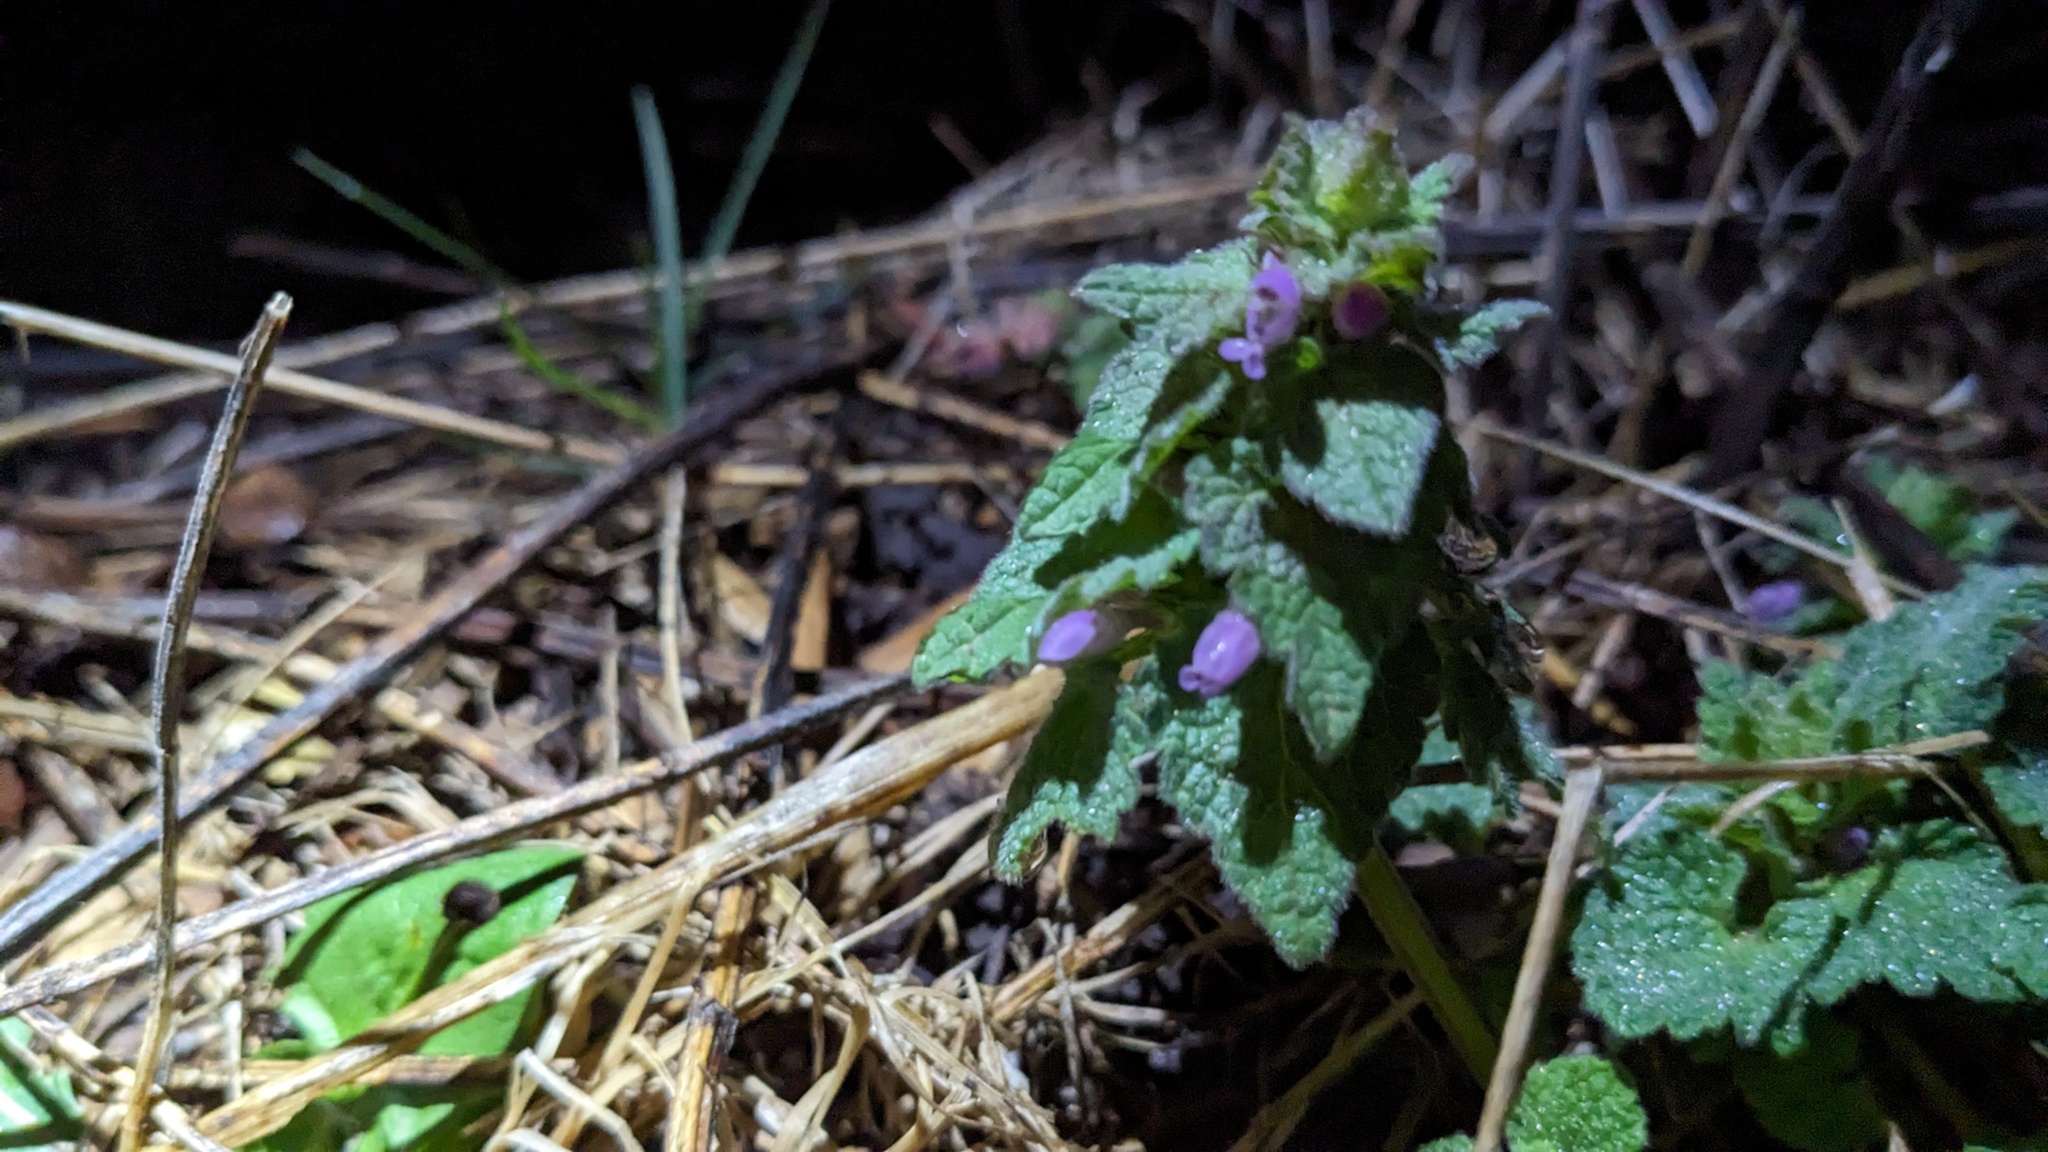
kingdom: Plantae
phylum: Tracheophyta
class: Magnoliopsida
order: Lamiales
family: Lamiaceae
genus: Lamium
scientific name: Lamium purpureum
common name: Red dead-nettle
